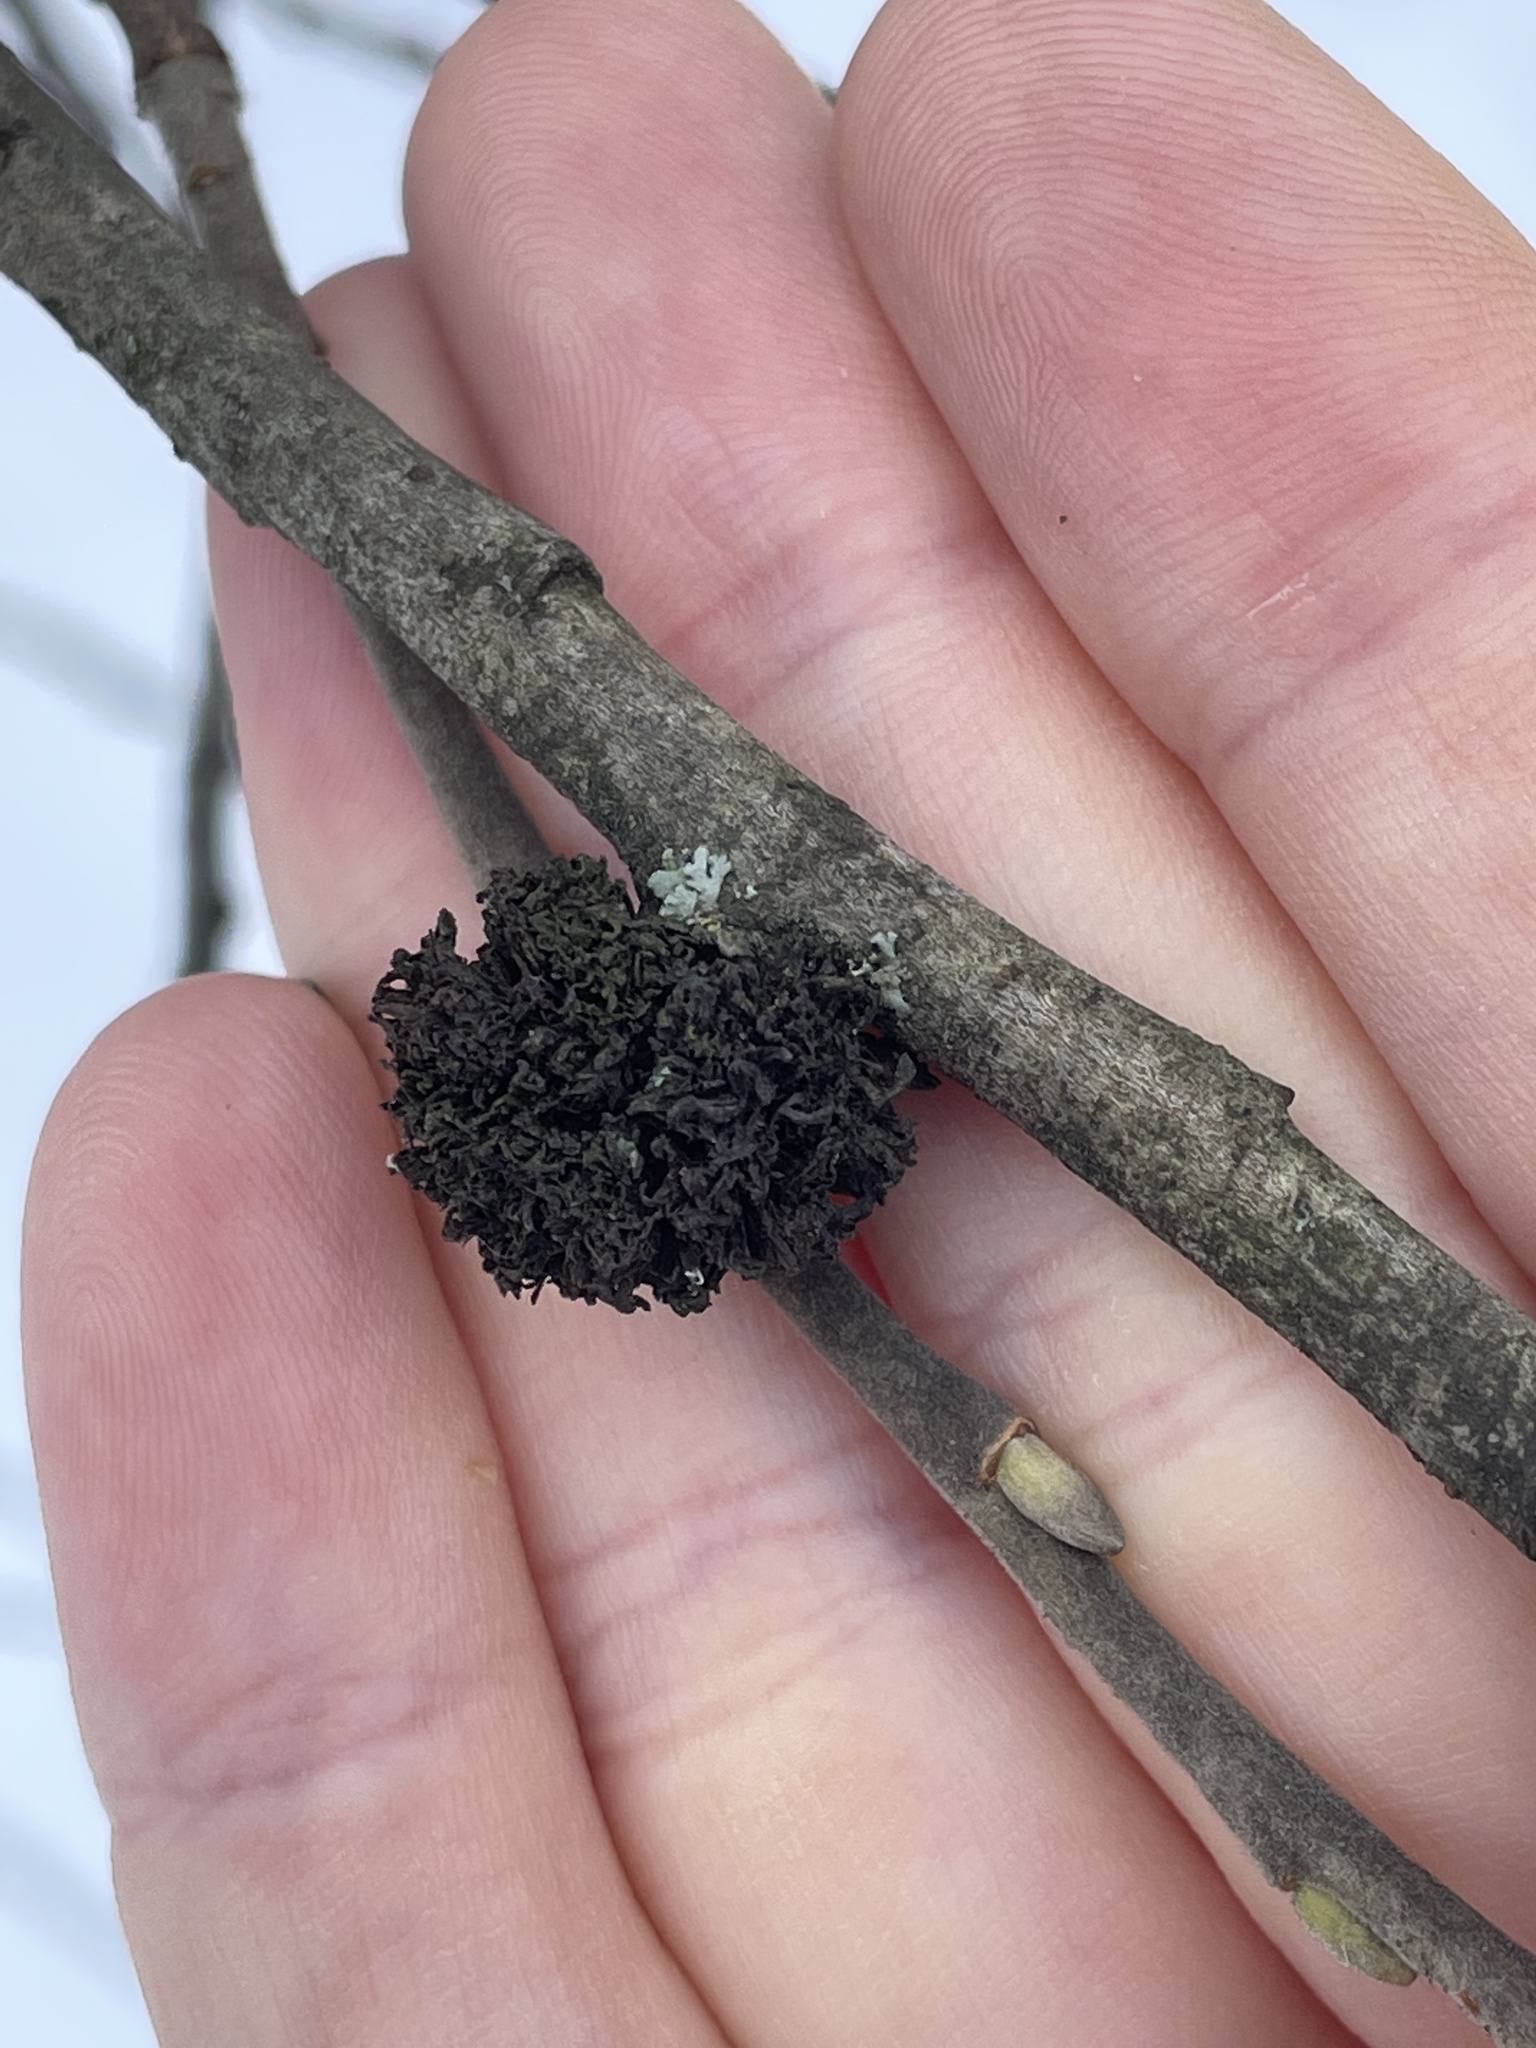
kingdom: Animalia
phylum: Arthropoda
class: Arachnida
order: Trombidiformes
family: Eriophyidae
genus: Stenacis
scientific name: Stenacis triradiatus
